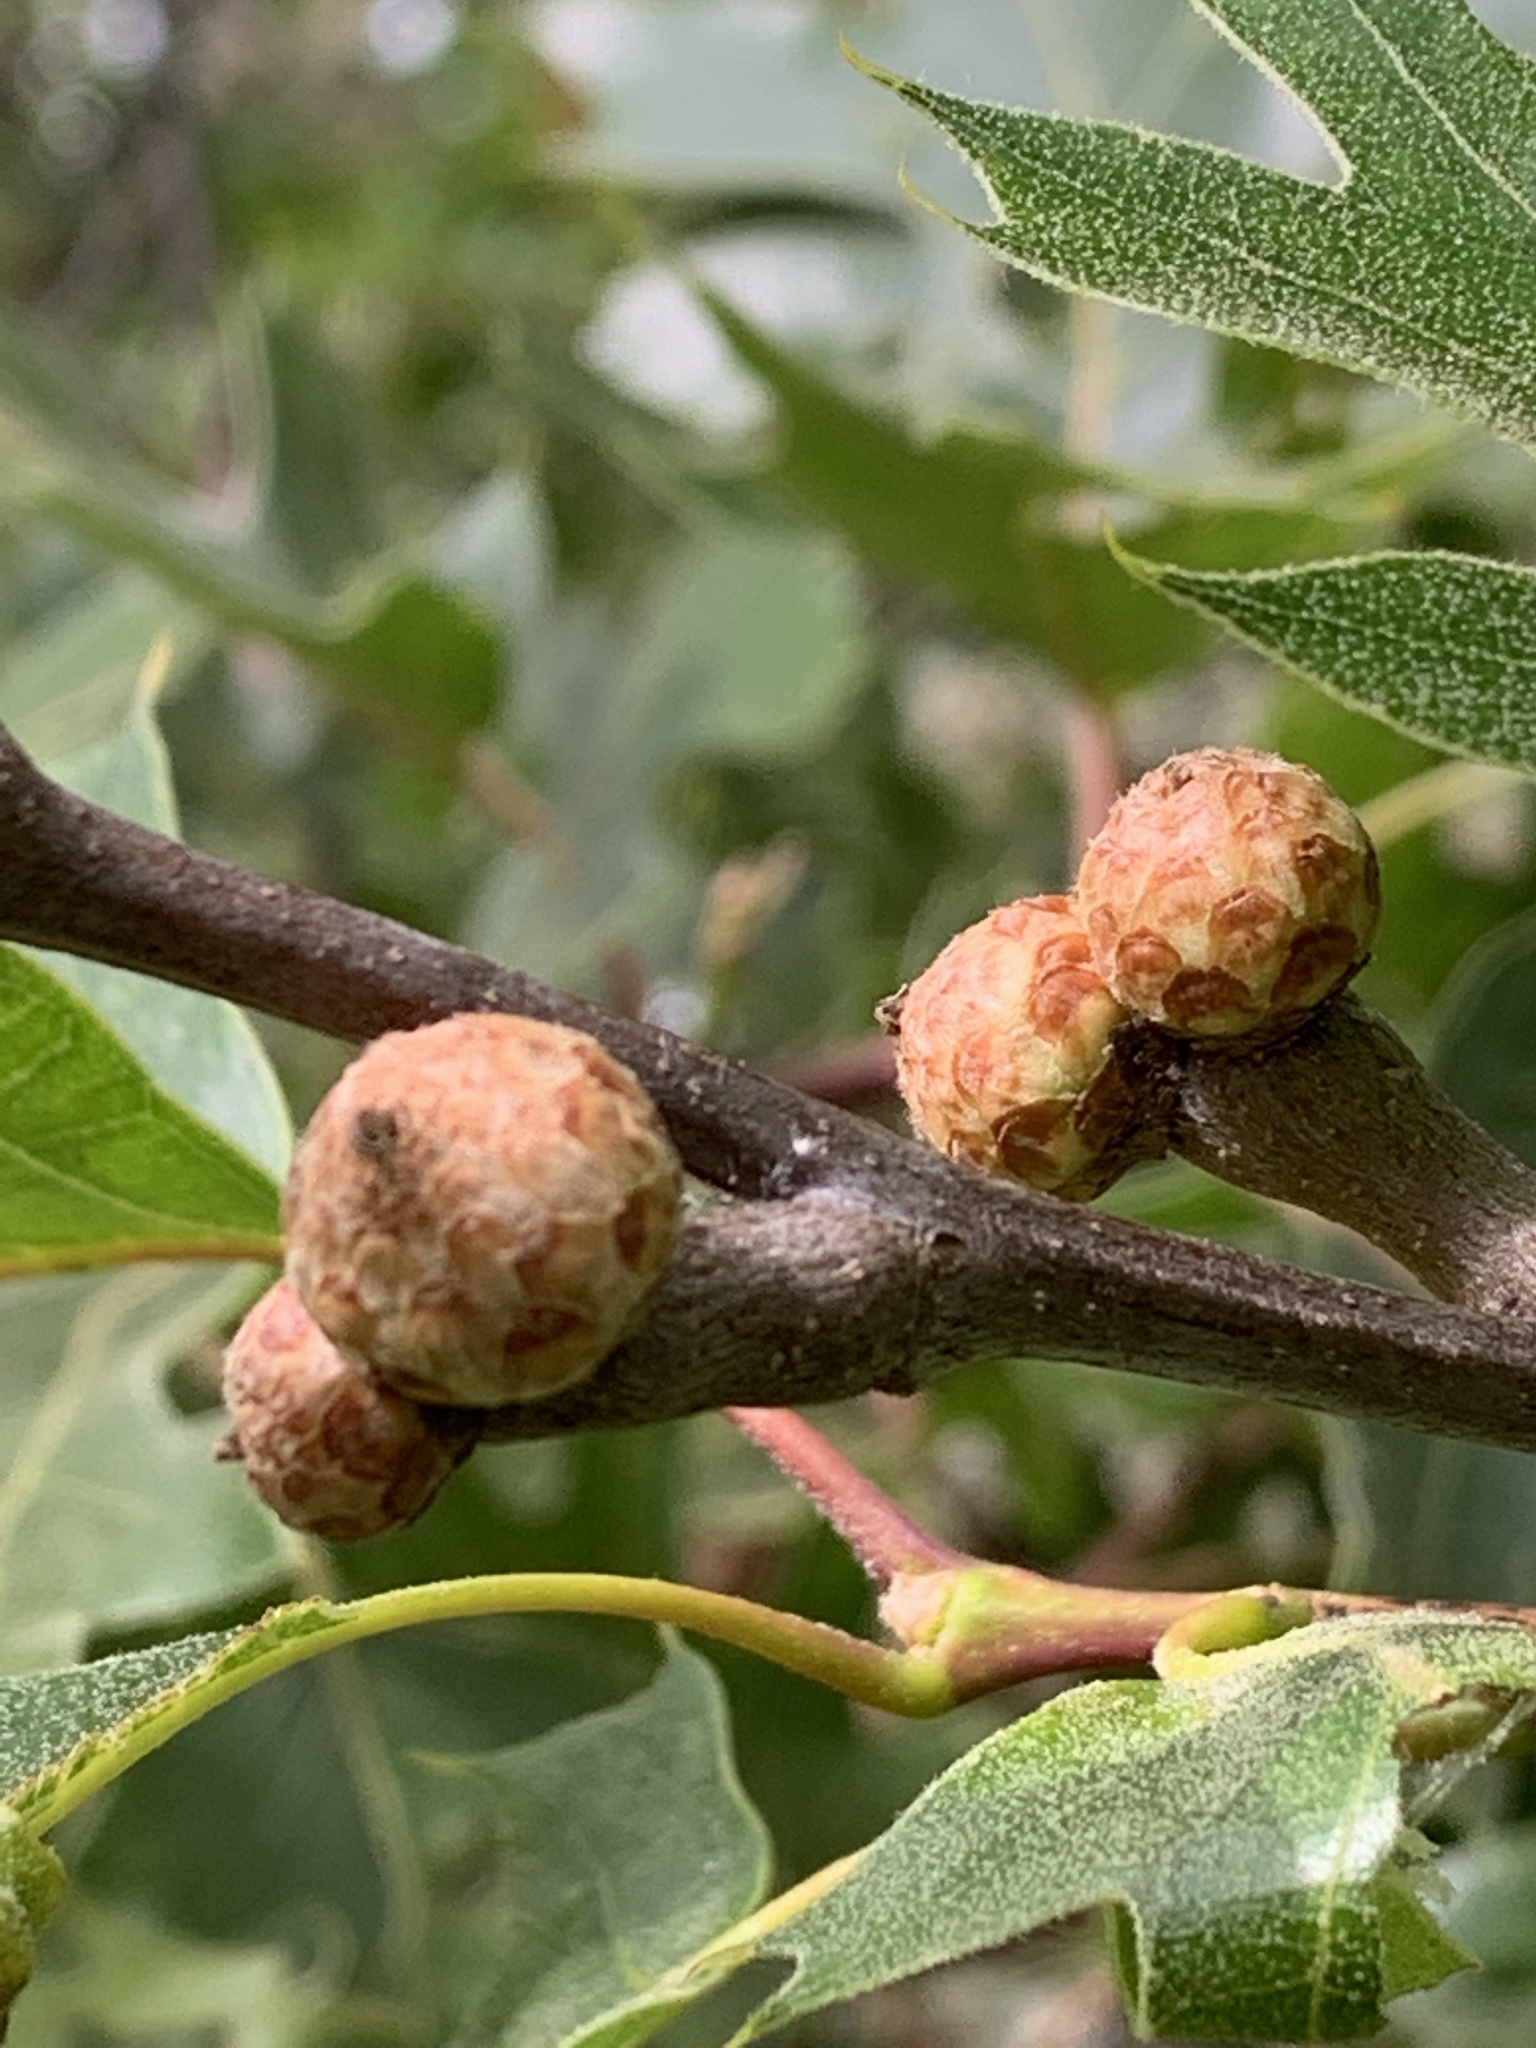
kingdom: Plantae
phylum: Tracheophyta
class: Magnoliopsida
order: Fagales
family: Fagaceae
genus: Quercus
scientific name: Quercus kelloggii
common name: California black oak
